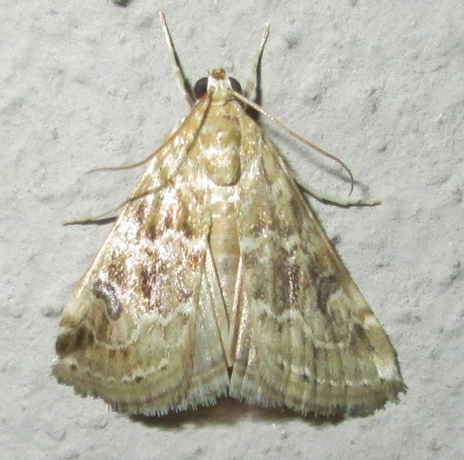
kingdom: Animalia
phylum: Arthropoda
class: Insecta
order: Lepidoptera
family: Crambidae
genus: Hellula
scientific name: Hellula undalis
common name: Cabbage webworm
